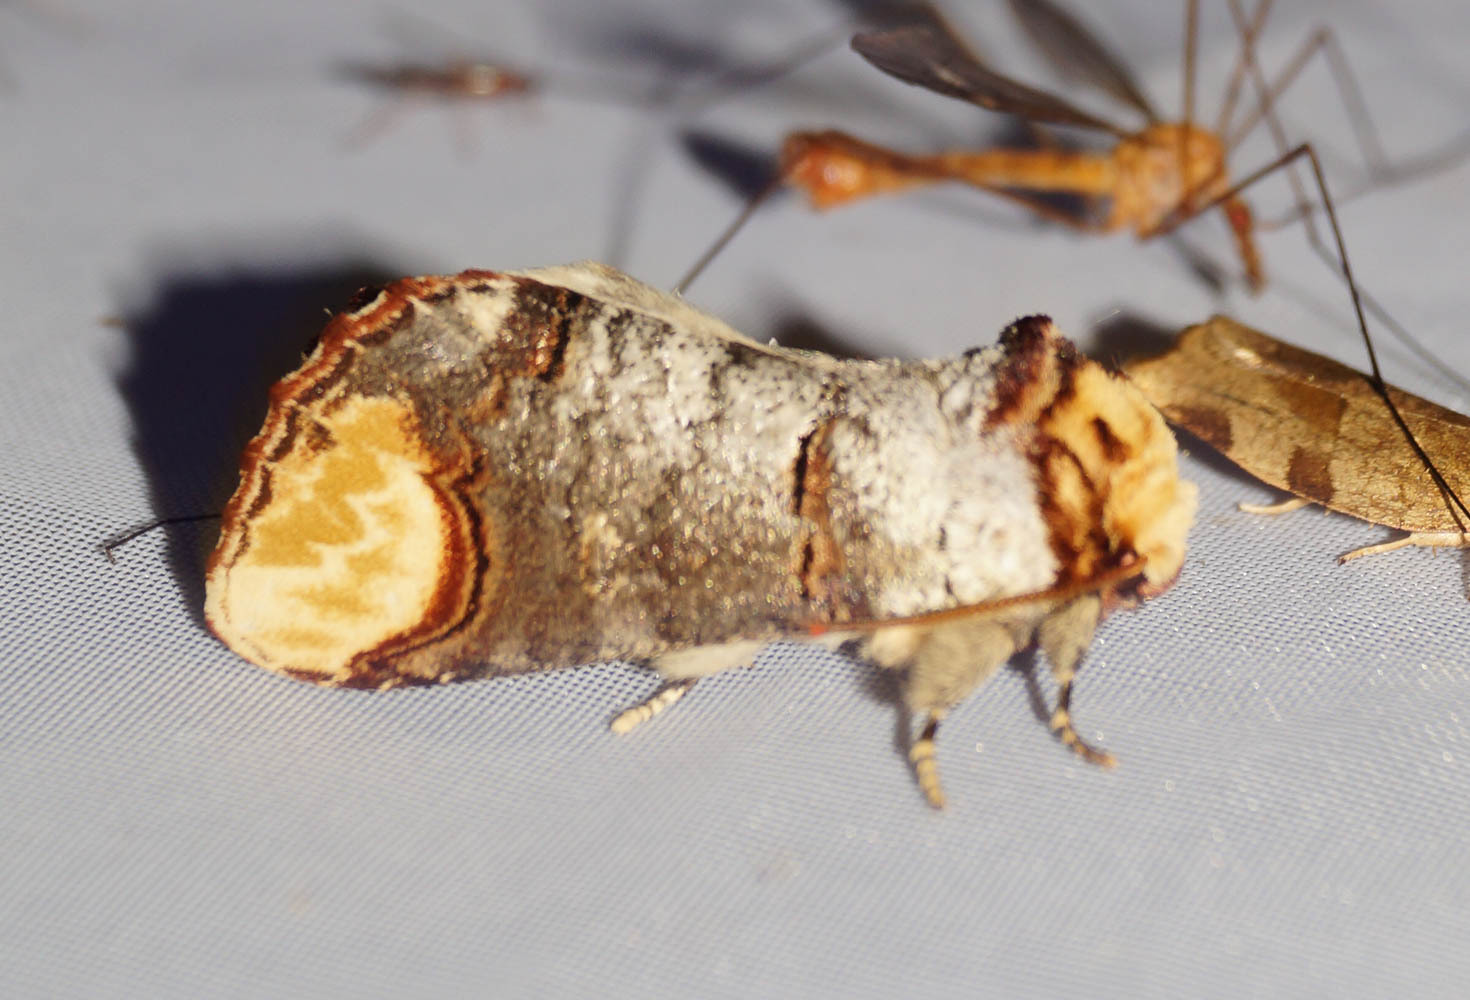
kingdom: Animalia
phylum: Arthropoda
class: Insecta
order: Lepidoptera
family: Notodontidae
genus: Phalera
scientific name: Phalera bucephala
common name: Buff-tip
